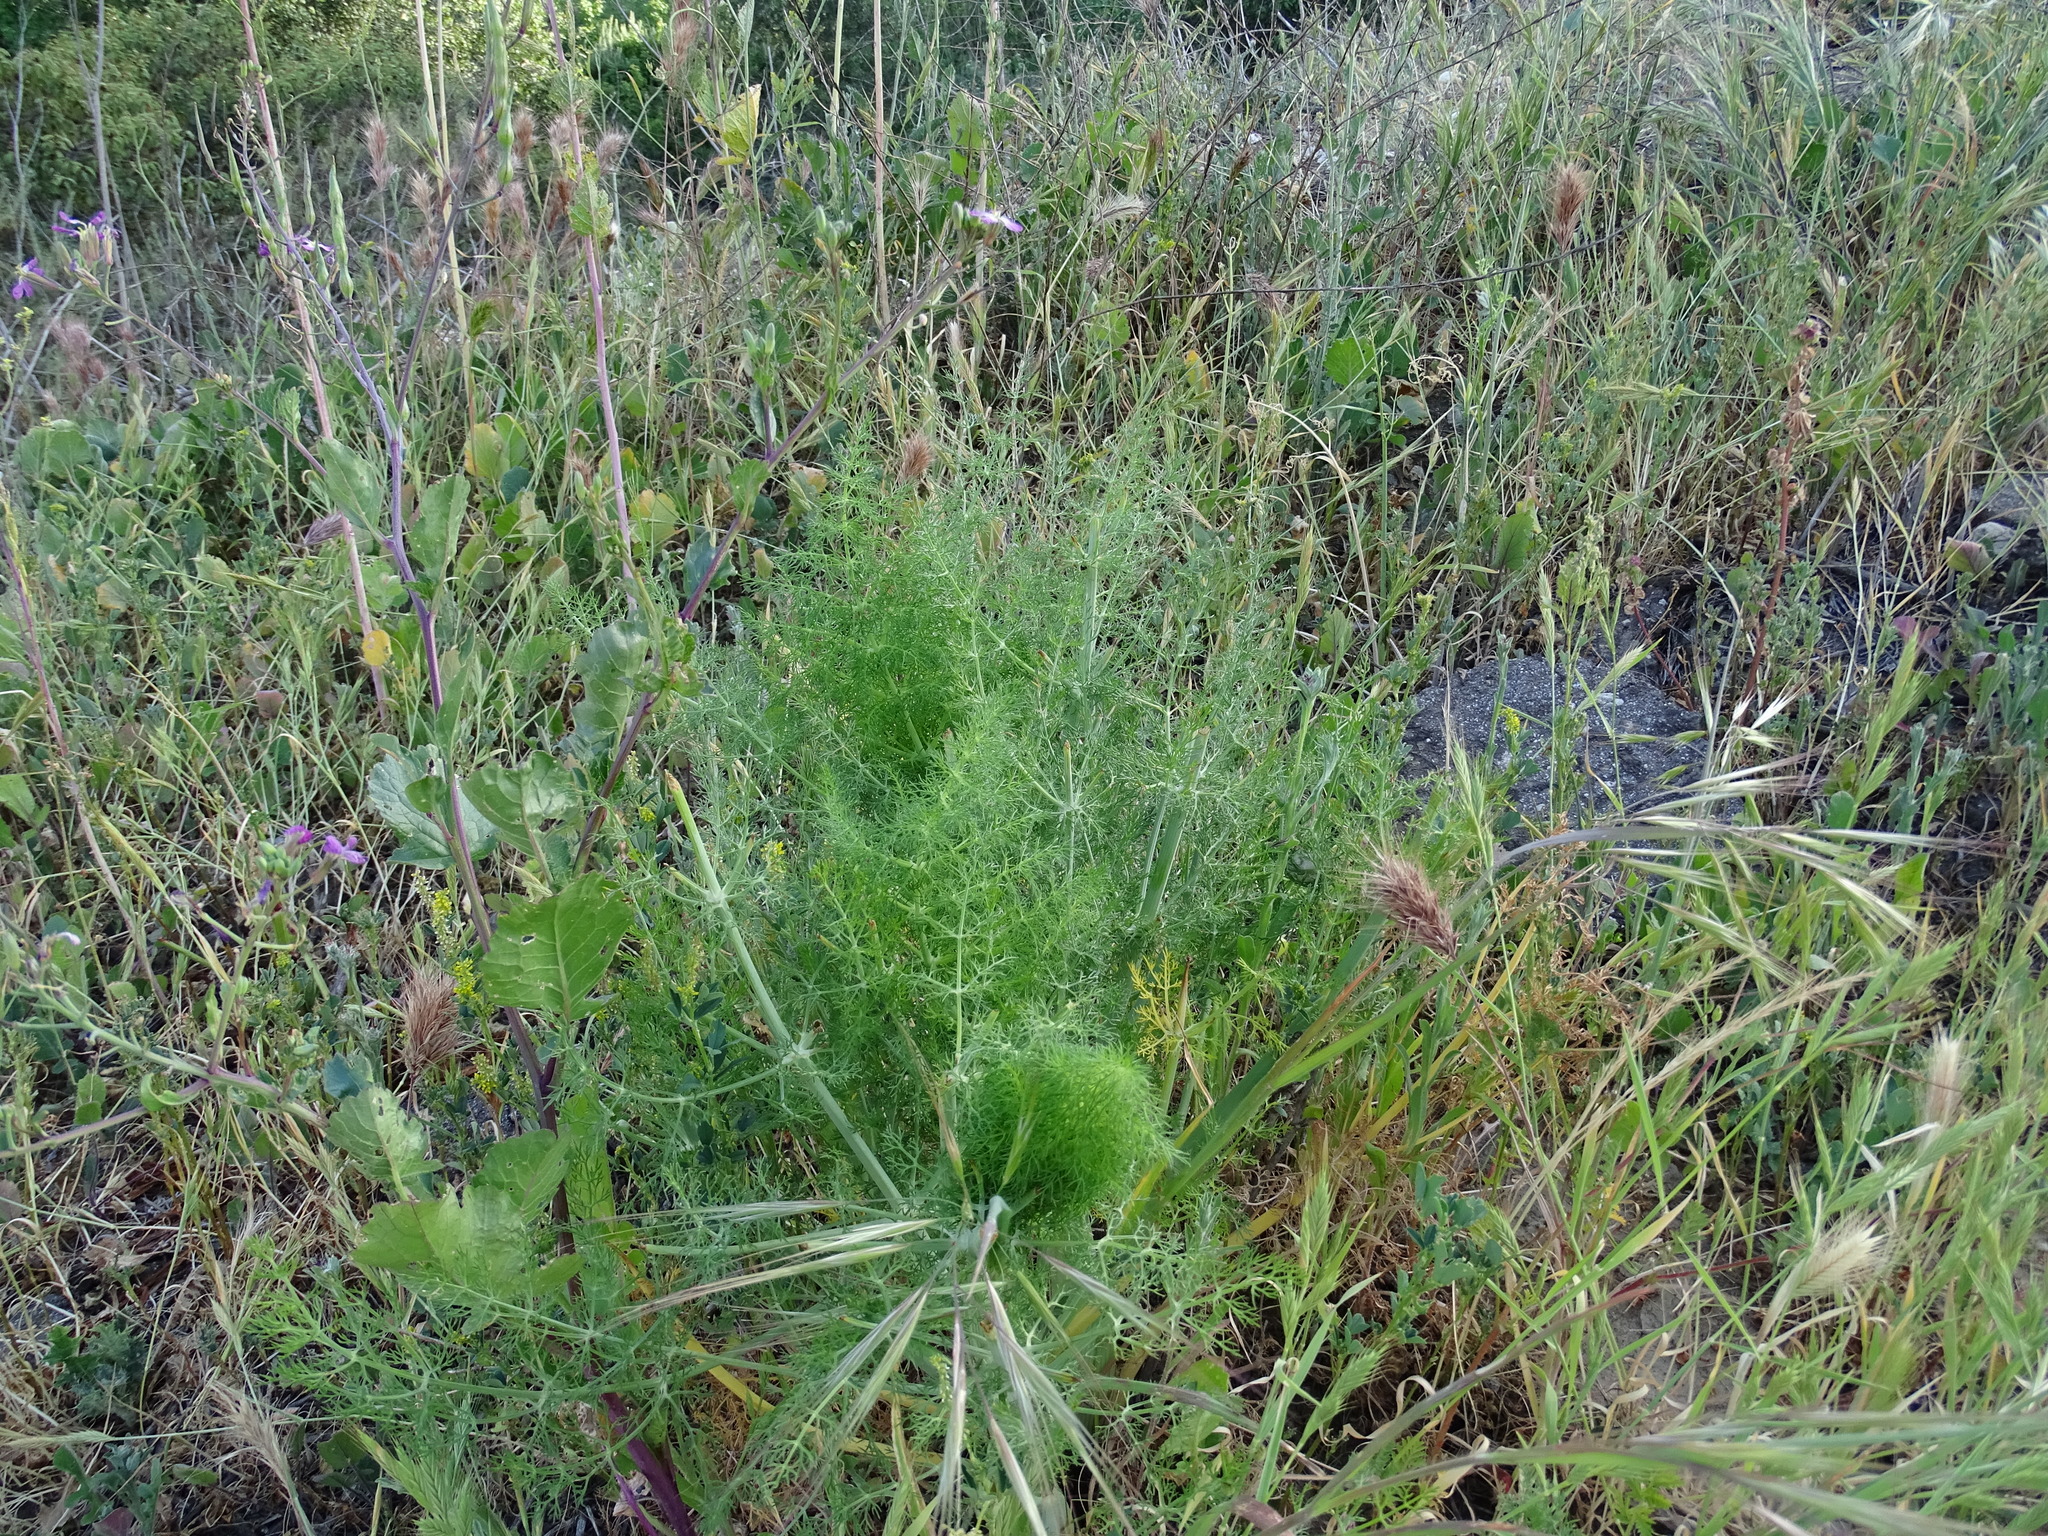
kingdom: Plantae
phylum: Tracheophyta
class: Magnoliopsida
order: Apiales
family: Apiaceae
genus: Foeniculum
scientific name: Foeniculum vulgare
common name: Fennel
